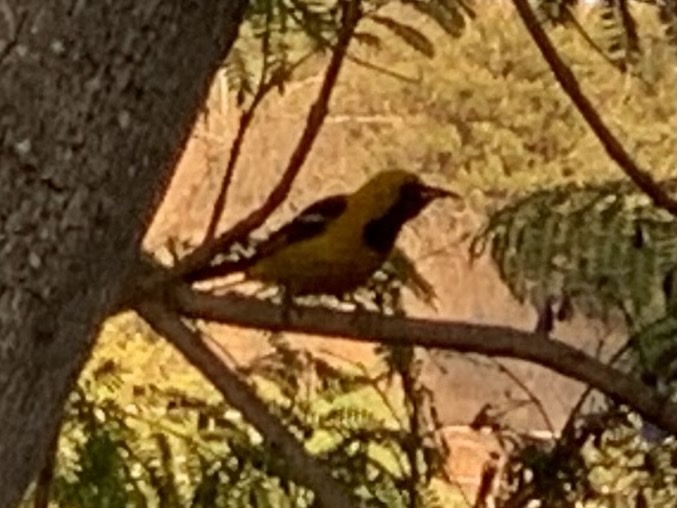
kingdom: Animalia
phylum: Chordata
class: Aves
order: Passeriformes
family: Icteridae
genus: Icterus
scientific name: Icterus cucullatus
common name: Hooded oriole
